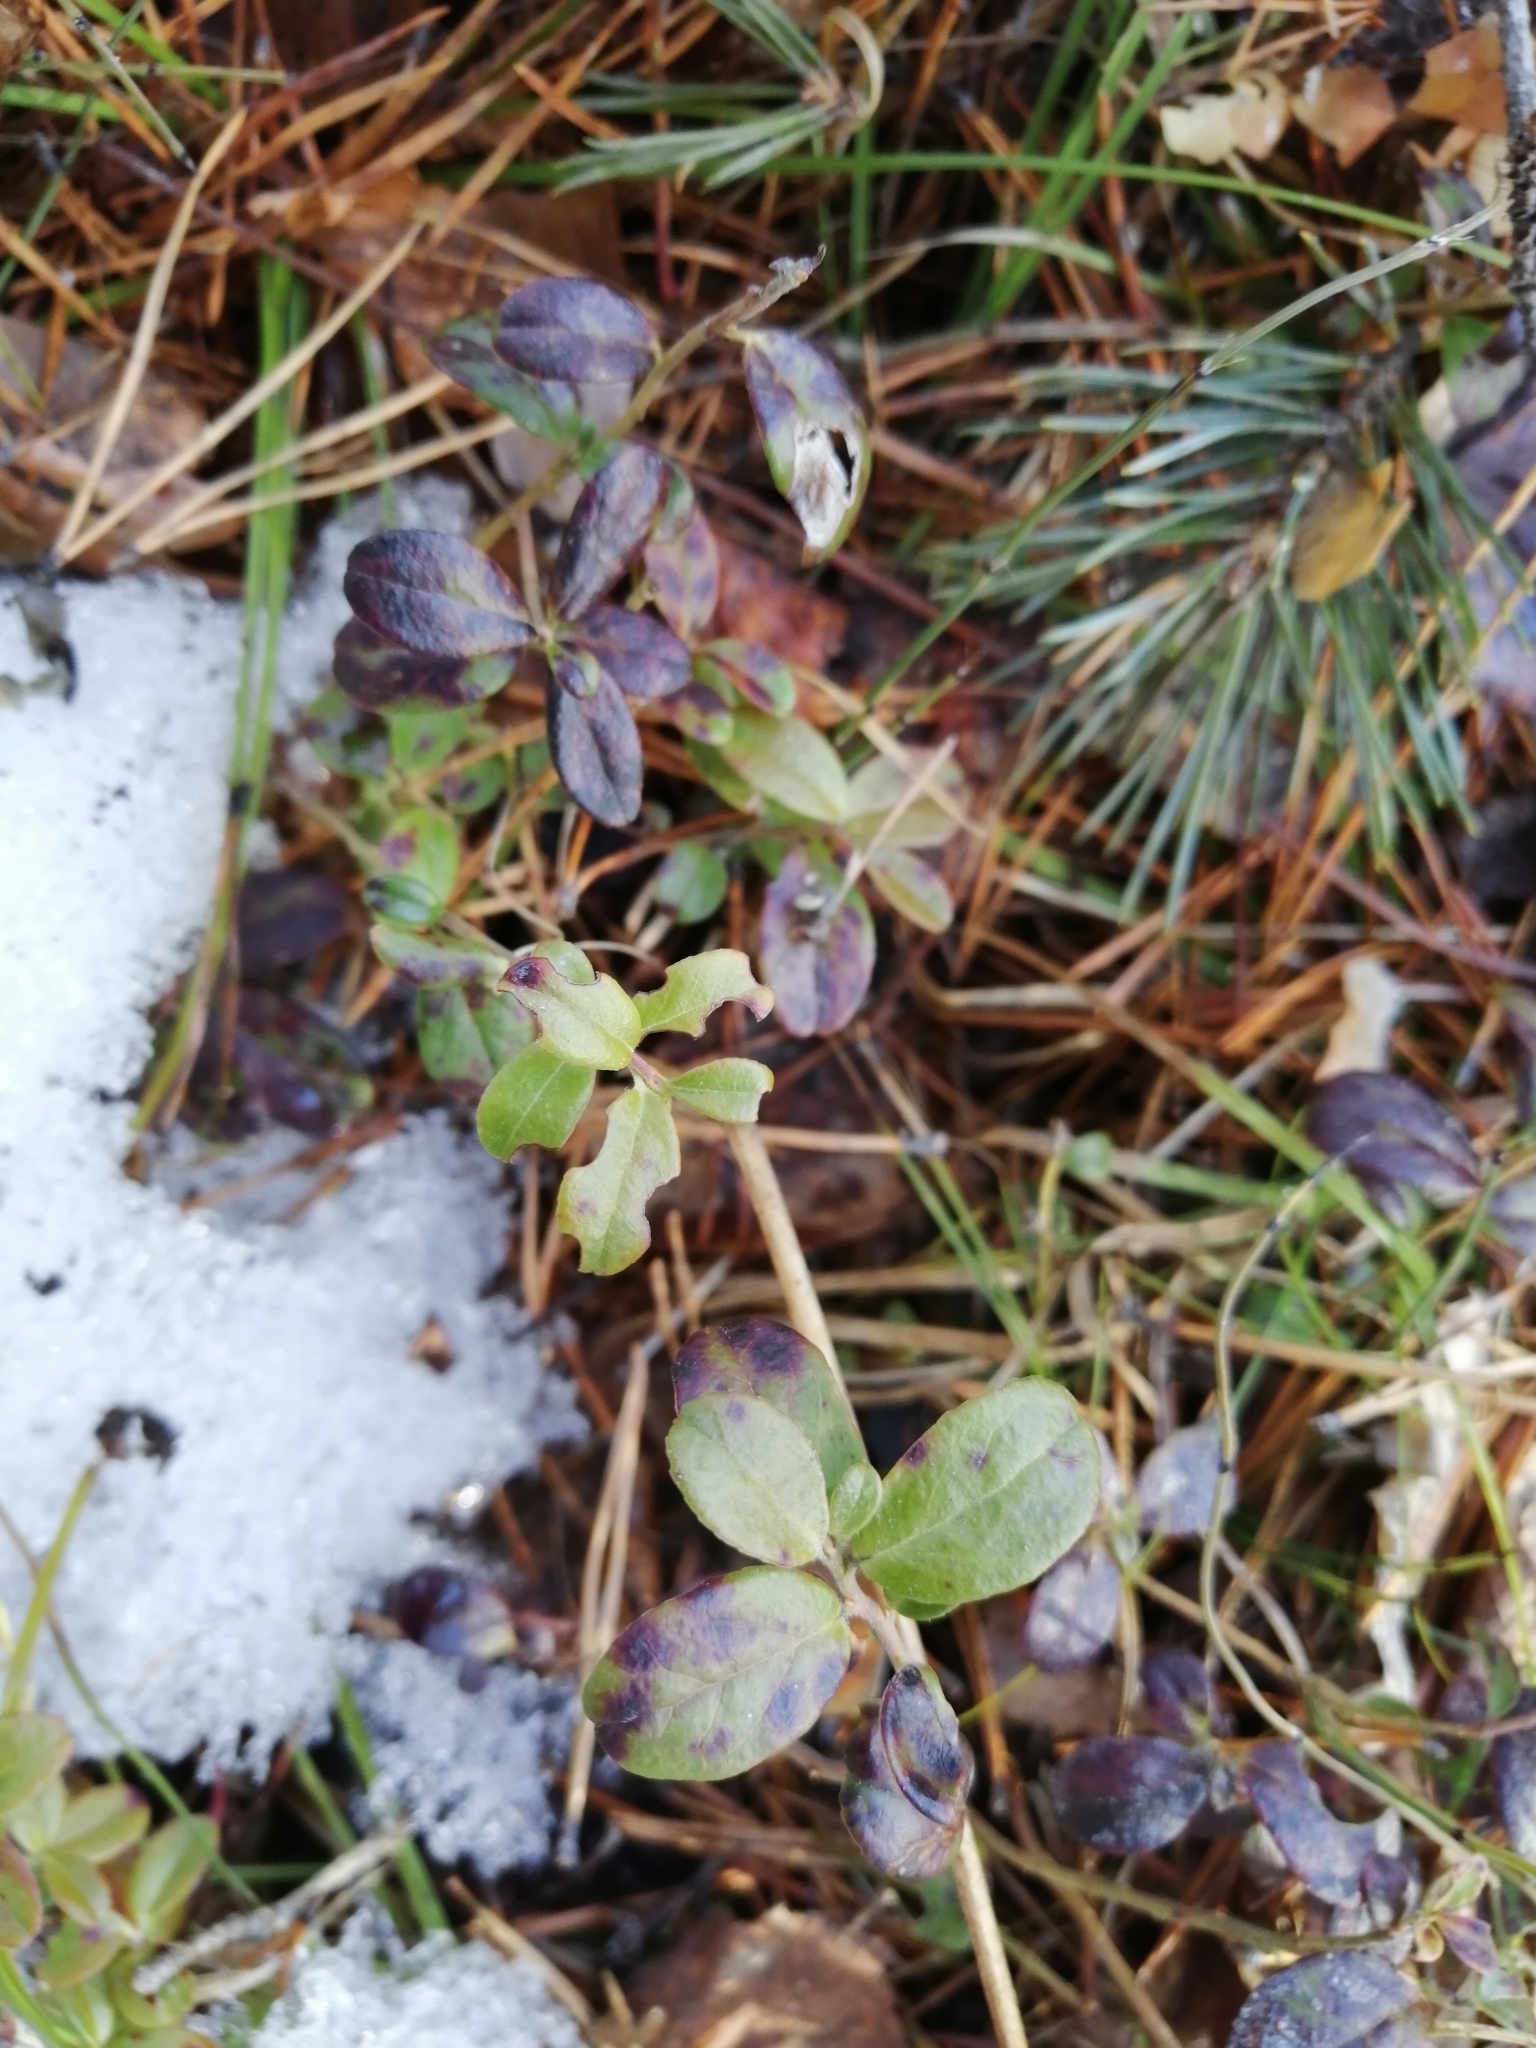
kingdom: Plantae
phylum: Tracheophyta
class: Magnoliopsida
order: Ericales
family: Ericaceae
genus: Vaccinium
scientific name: Vaccinium vitis-idaea
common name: Cowberry
